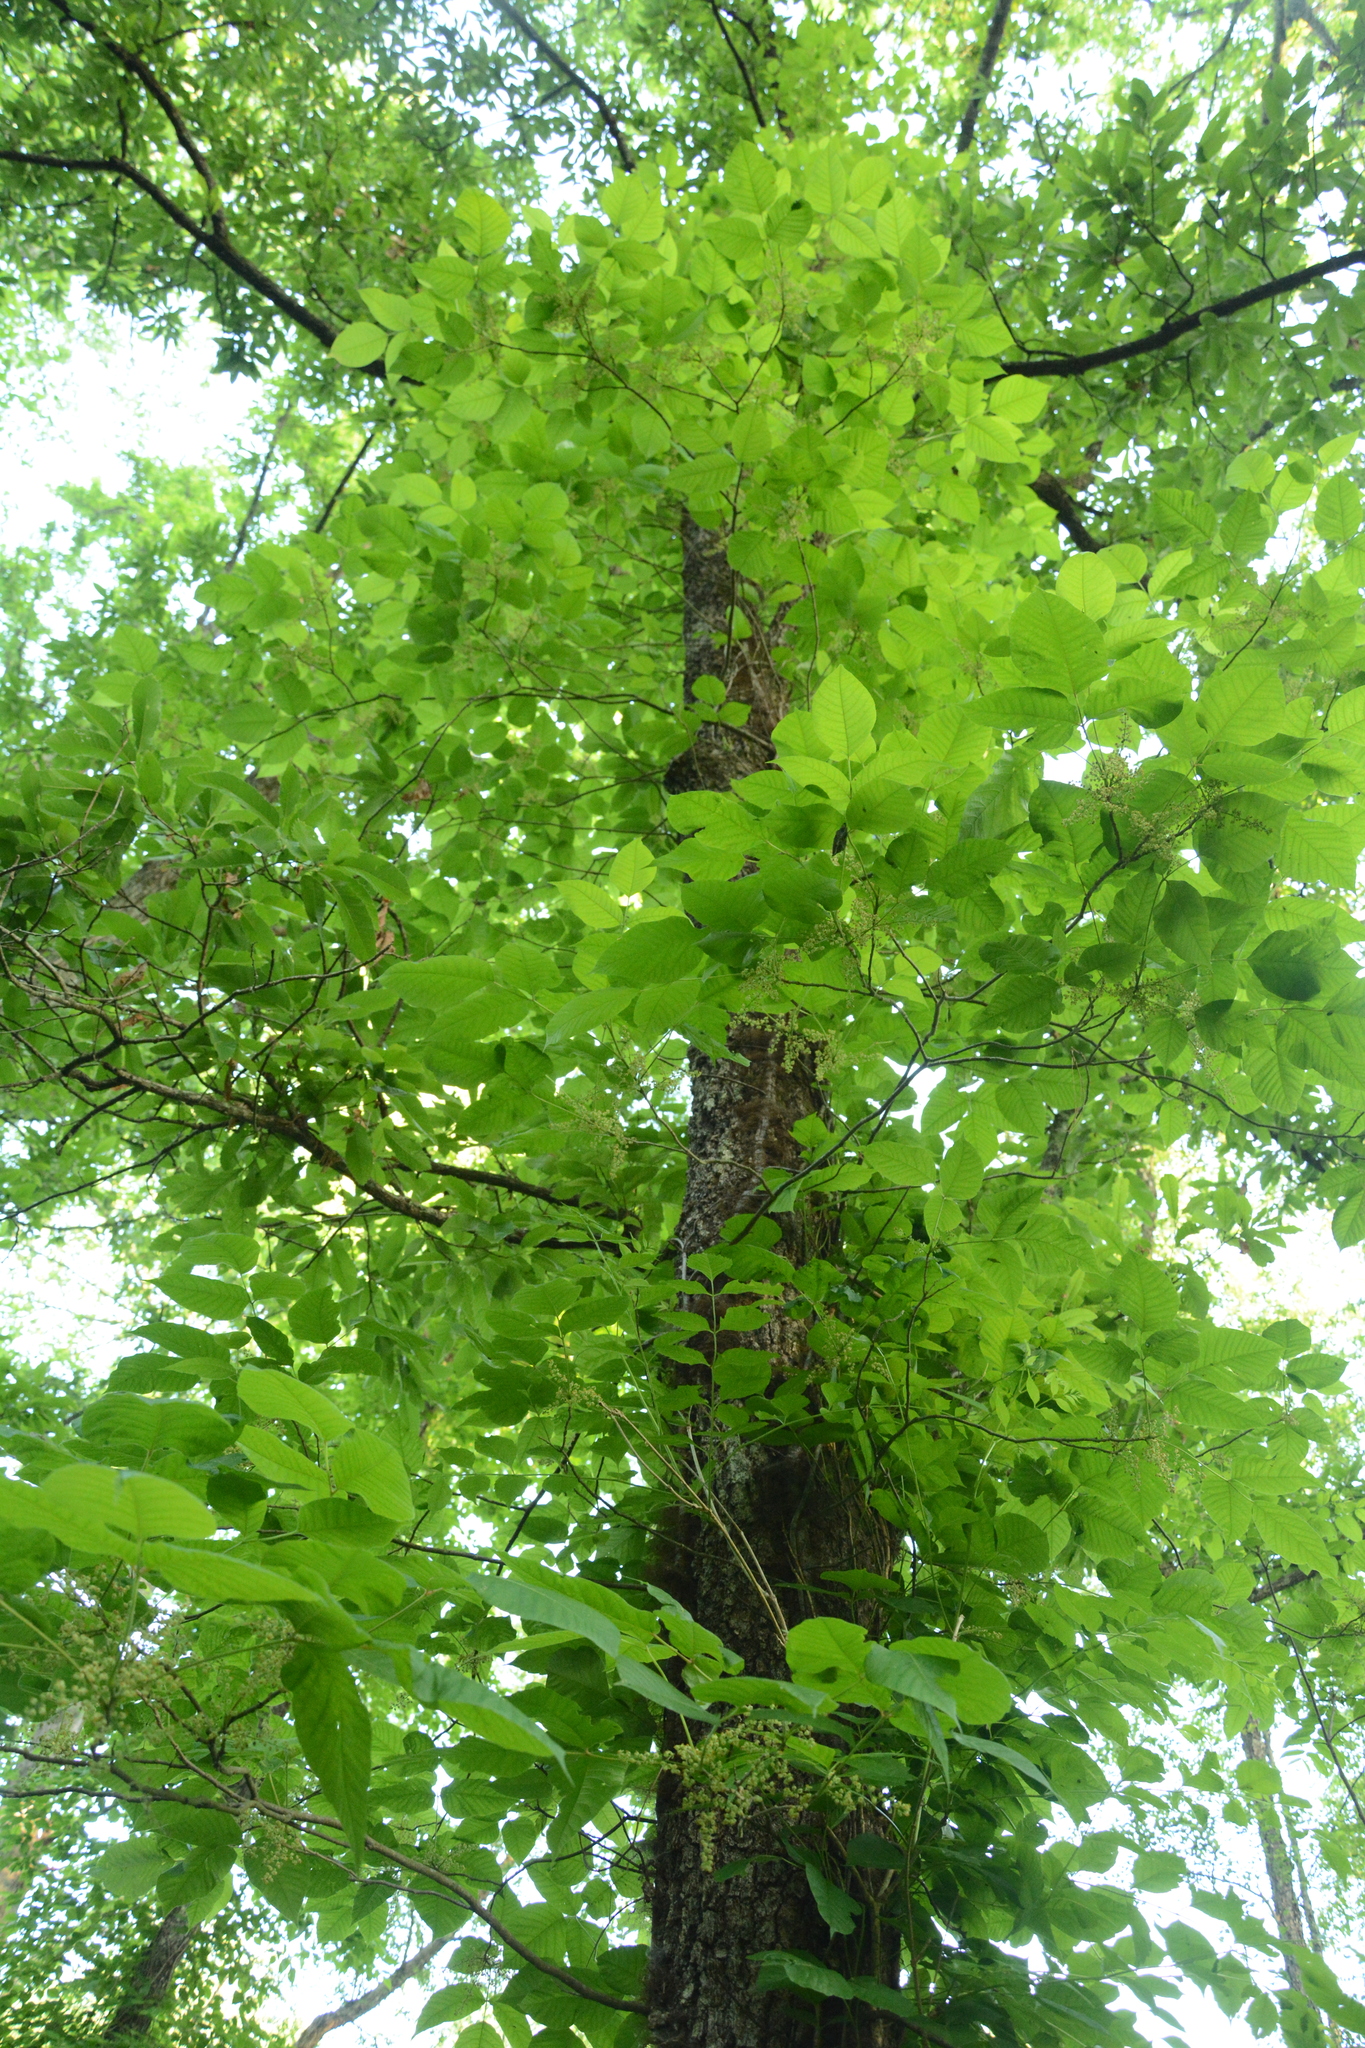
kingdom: Plantae
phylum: Tracheophyta
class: Magnoliopsida
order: Sapindales
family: Anacardiaceae
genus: Toxicodendron
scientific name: Toxicodendron radicans
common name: Poison ivy
